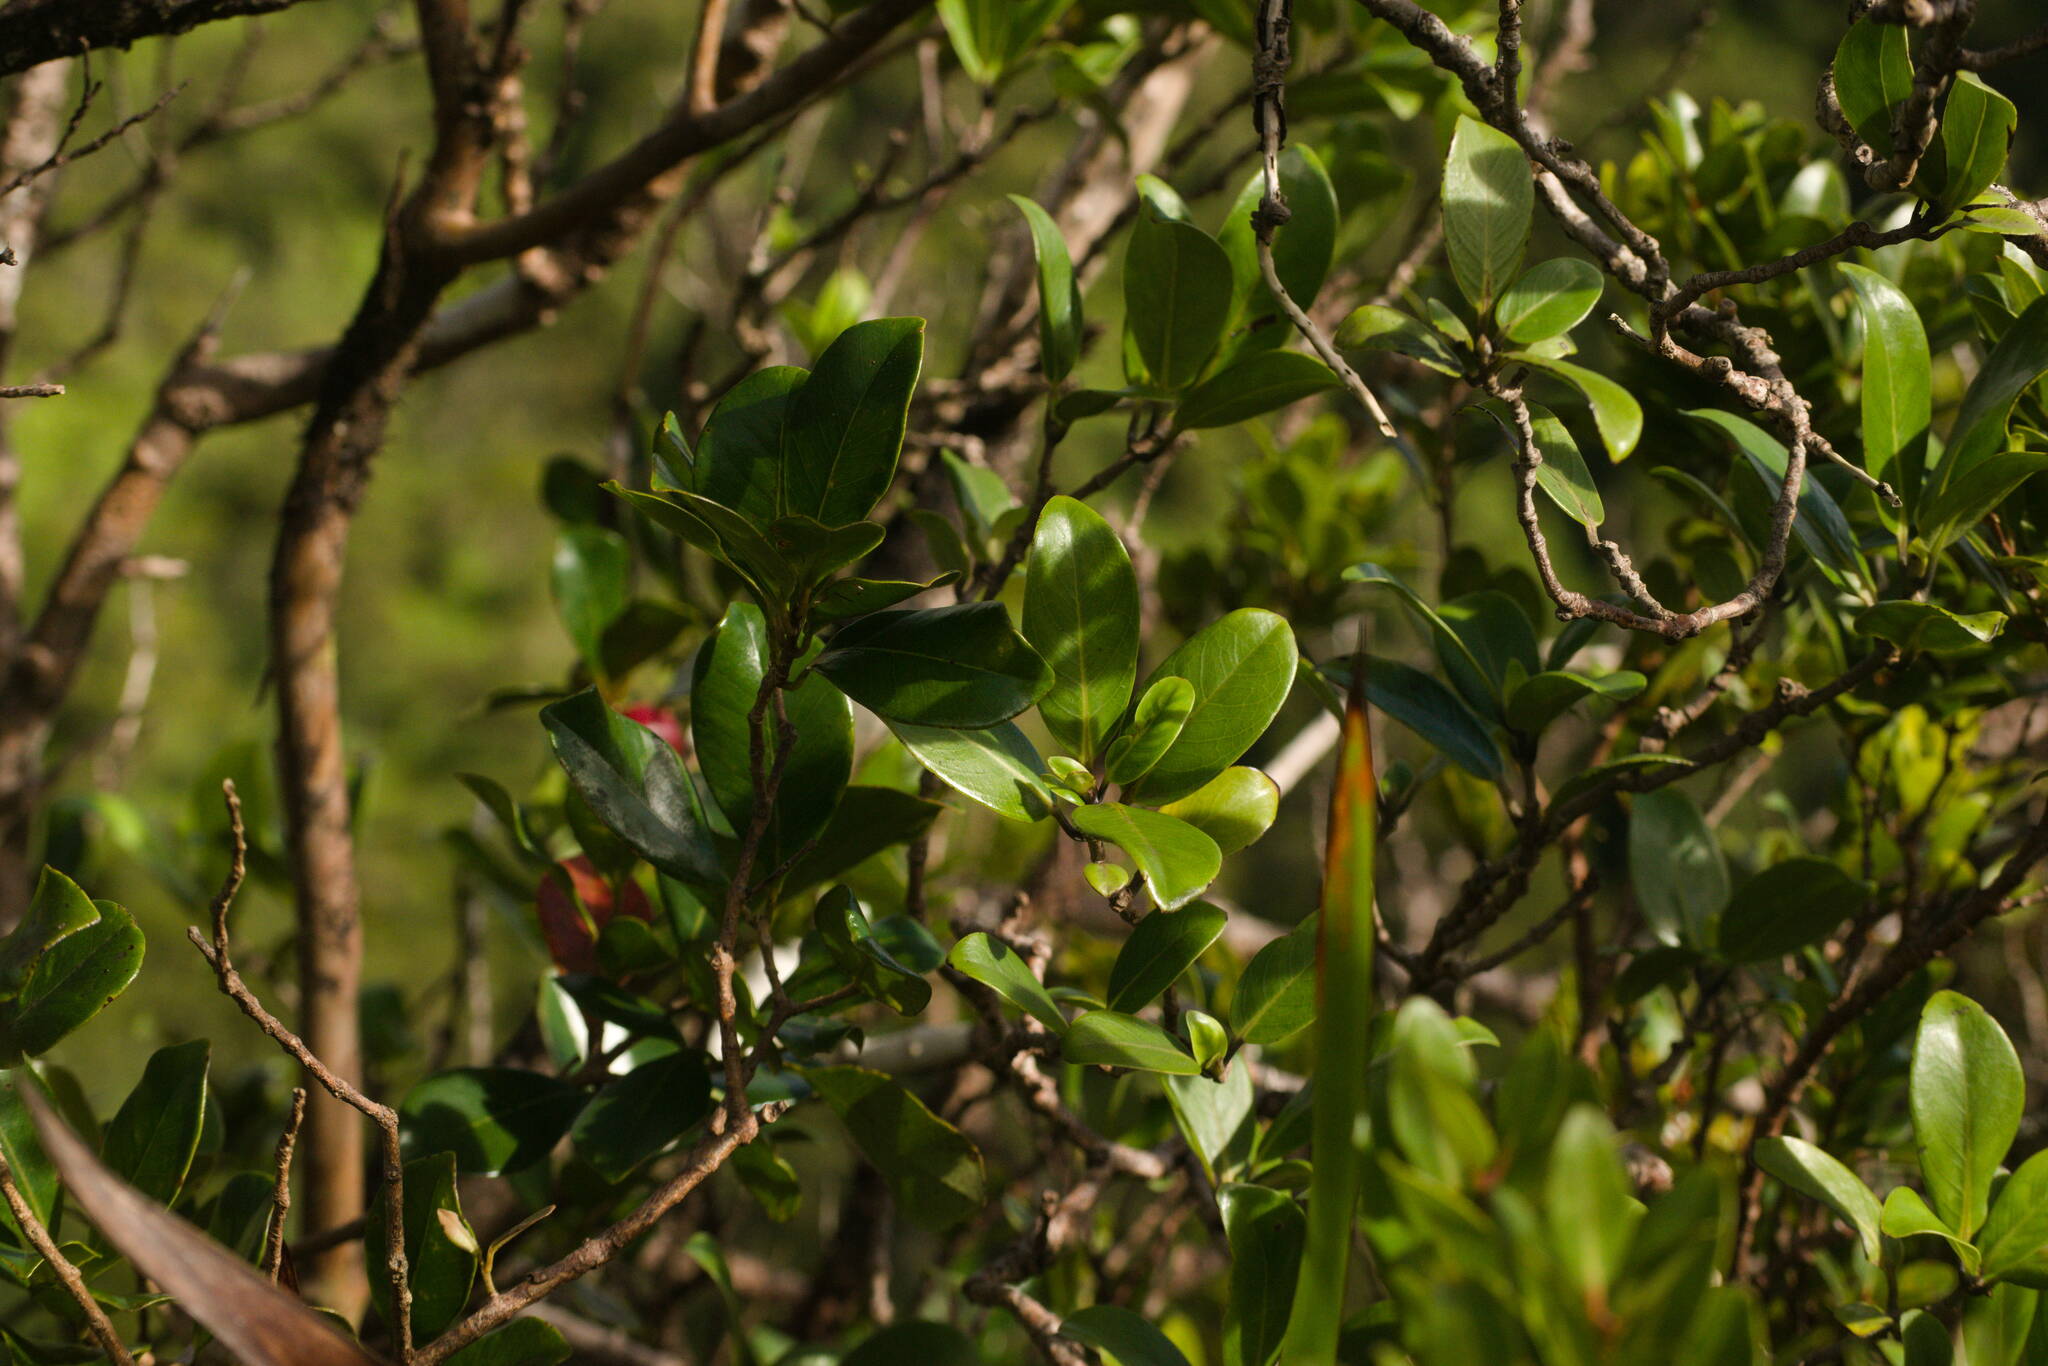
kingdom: Plantae
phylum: Tracheophyta
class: Magnoliopsida
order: Gentianales
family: Rubiaceae
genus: Kadua
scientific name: Kadua affinis
